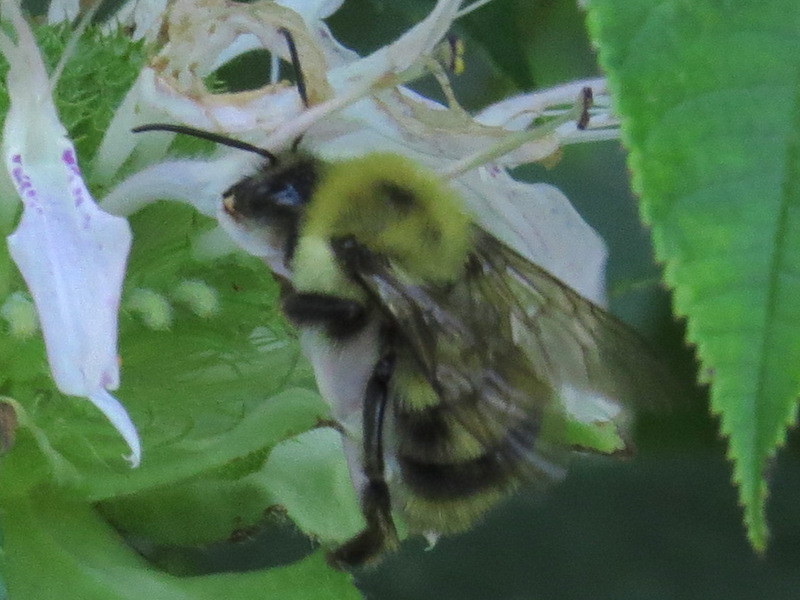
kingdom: Animalia
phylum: Arthropoda
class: Insecta
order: Hymenoptera
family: Apidae
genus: Bombus
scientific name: Bombus bimaculatus
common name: Two-spotted bumble bee
